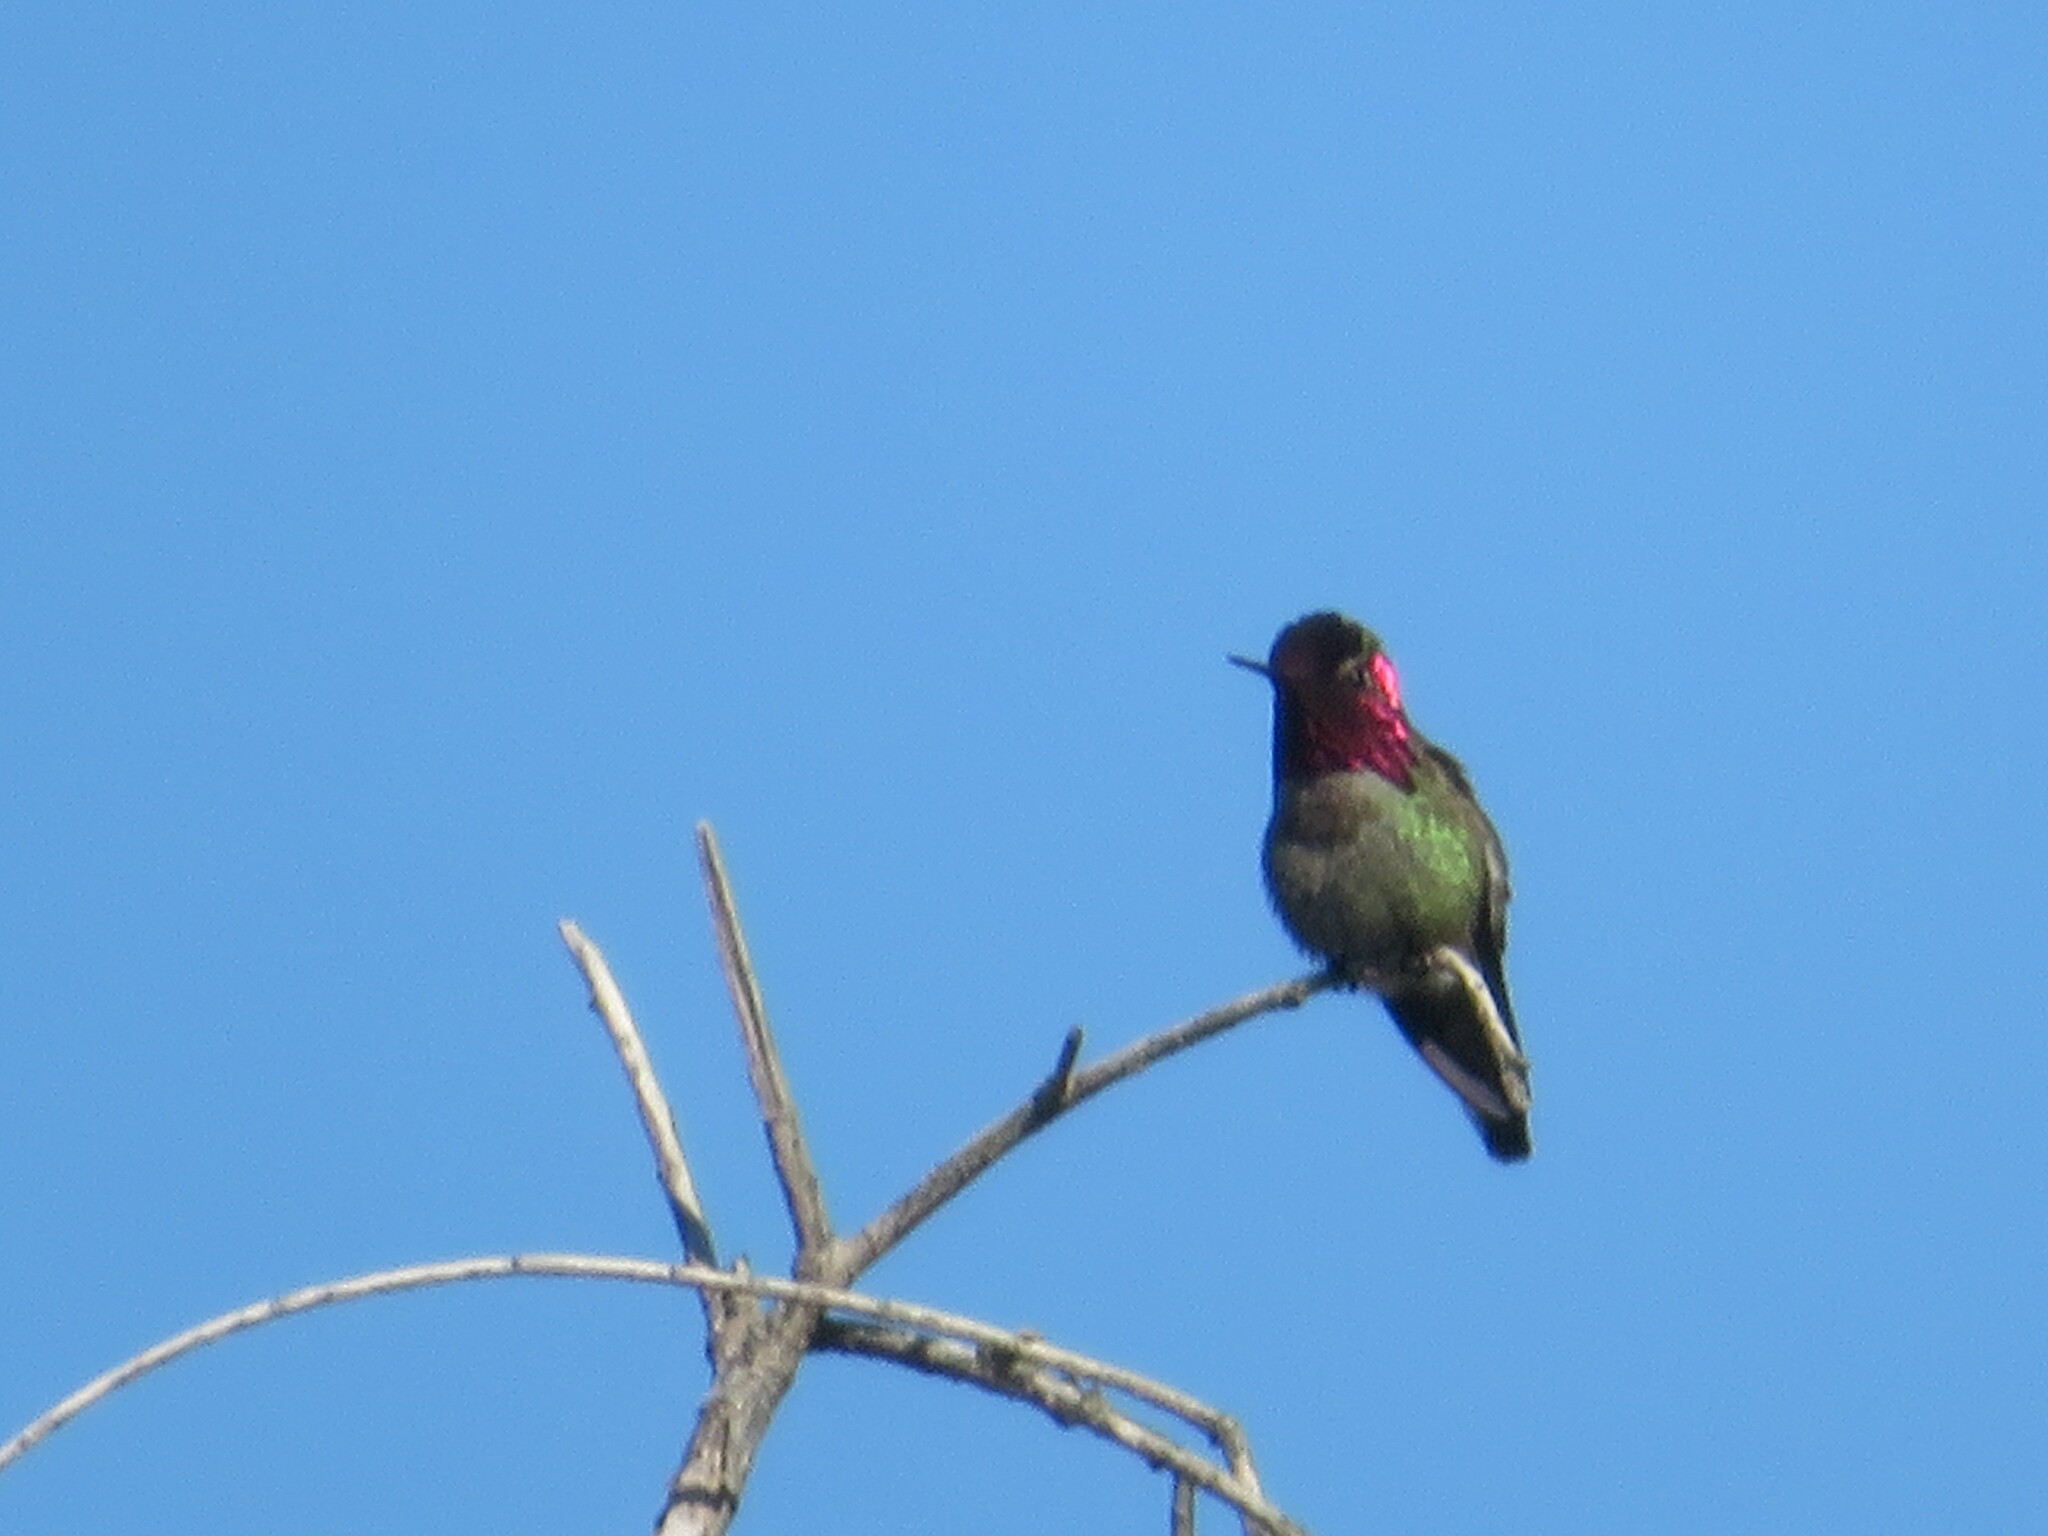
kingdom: Animalia
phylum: Chordata
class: Aves
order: Apodiformes
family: Trochilidae
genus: Calypte
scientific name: Calypte anna
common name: Anna's hummingbird
